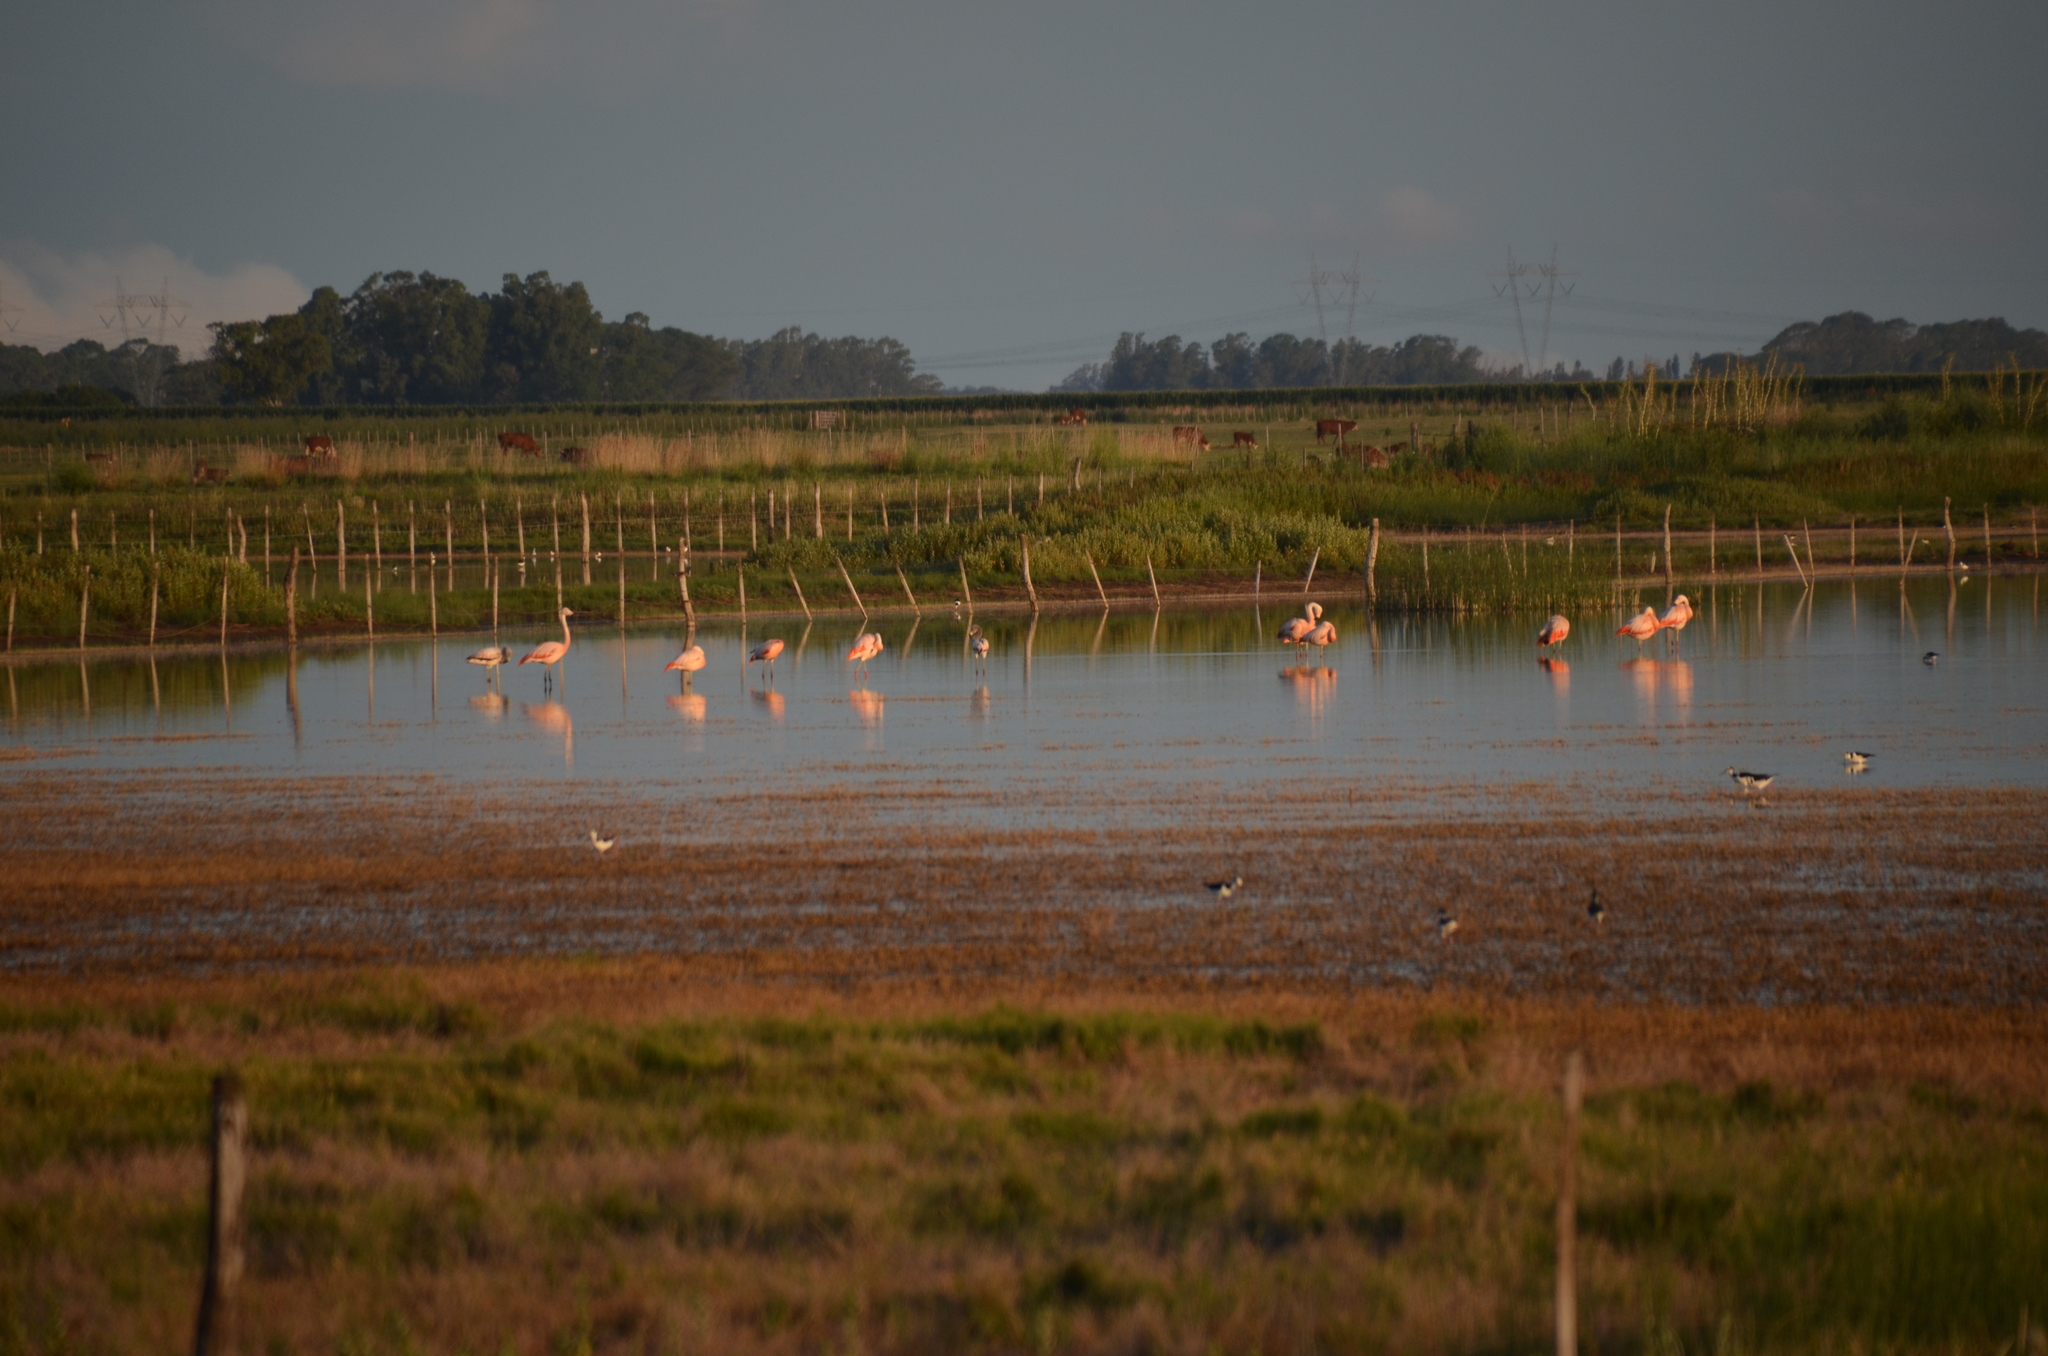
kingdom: Animalia
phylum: Chordata
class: Aves
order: Phoenicopteriformes
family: Phoenicopteridae
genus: Phoenicopterus
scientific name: Phoenicopterus chilensis
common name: Chilean flamingo
